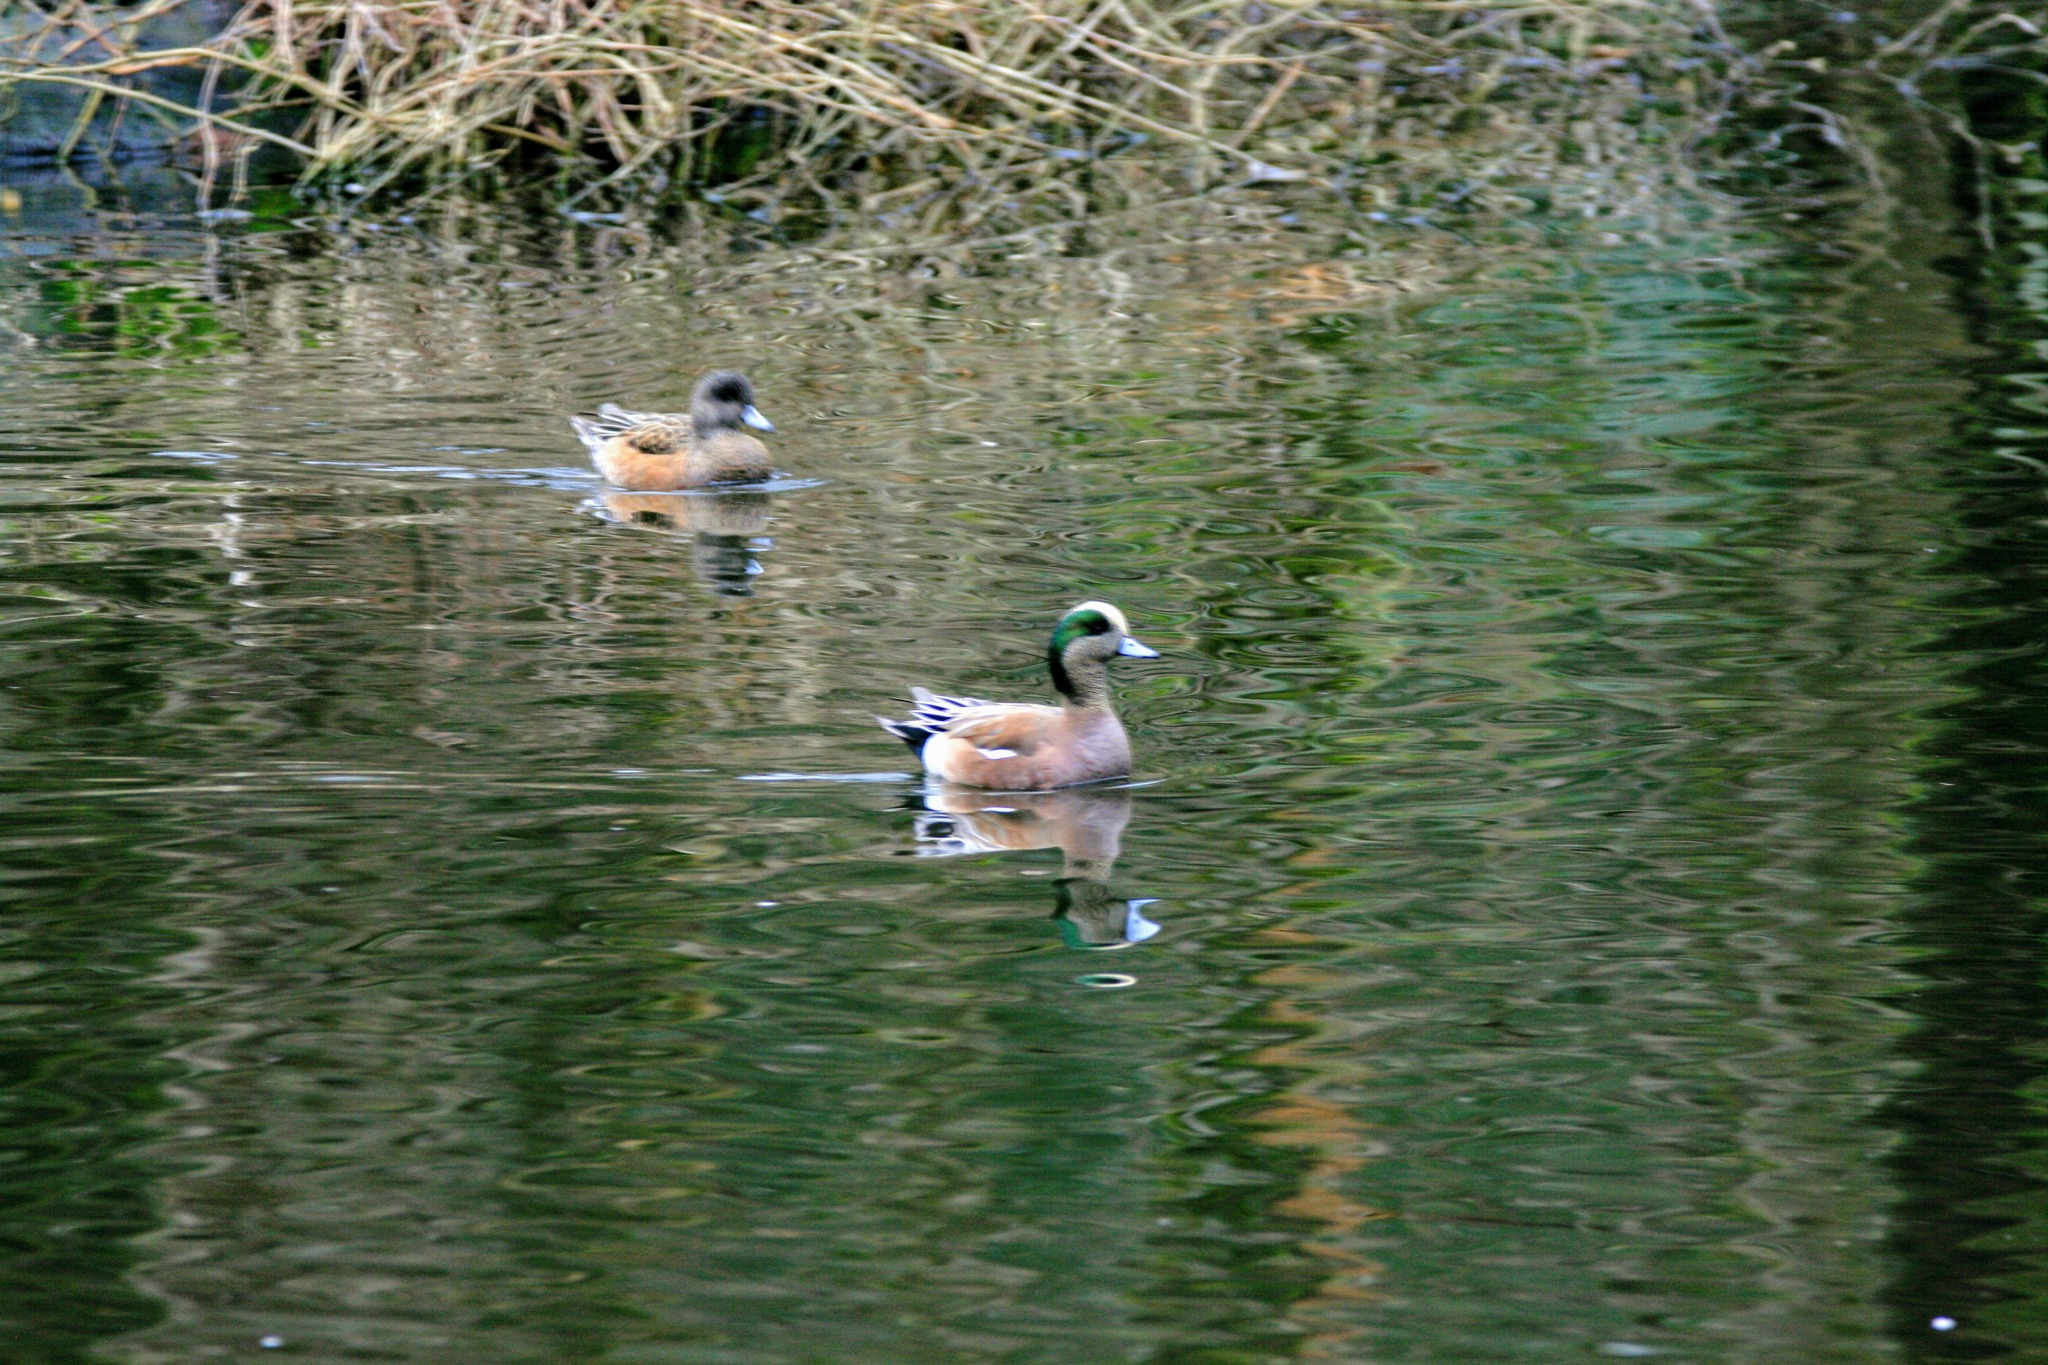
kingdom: Animalia
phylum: Chordata
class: Aves
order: Anseriformes
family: Anatidae
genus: Mareca
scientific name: Mareca americana
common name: American wigeon
